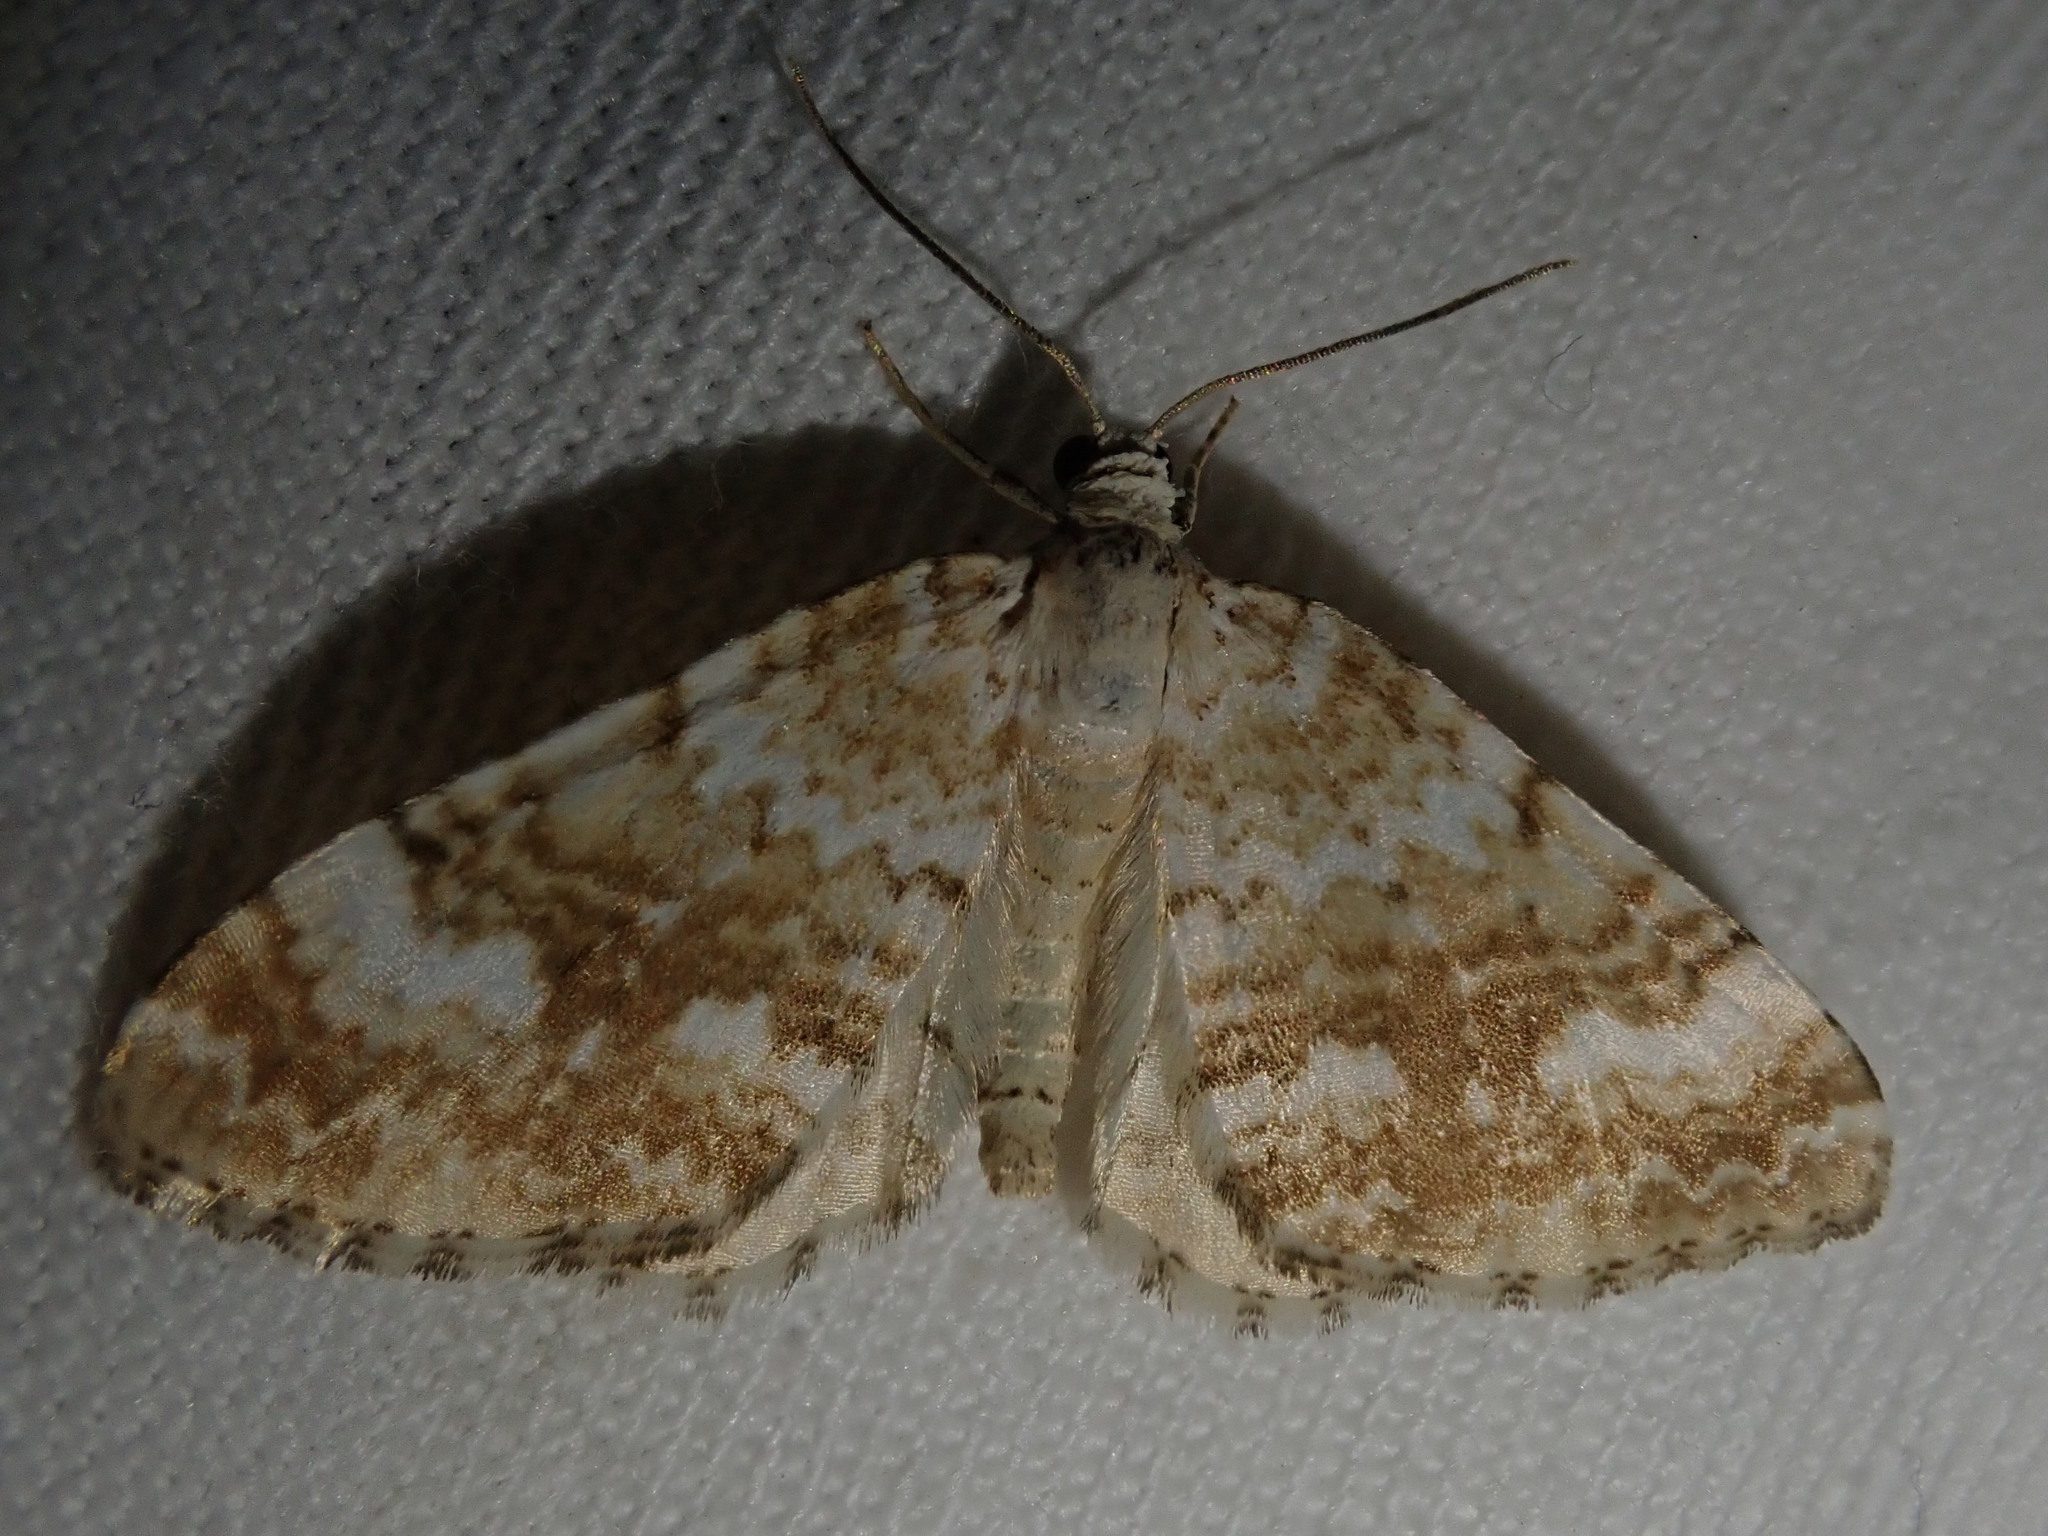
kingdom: Animalia
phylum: Arthropoda
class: Insecta
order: Lepidoptera
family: Geometridae
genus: Perizoma
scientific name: Perizoma flavofasciata
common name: Sandy carpet
